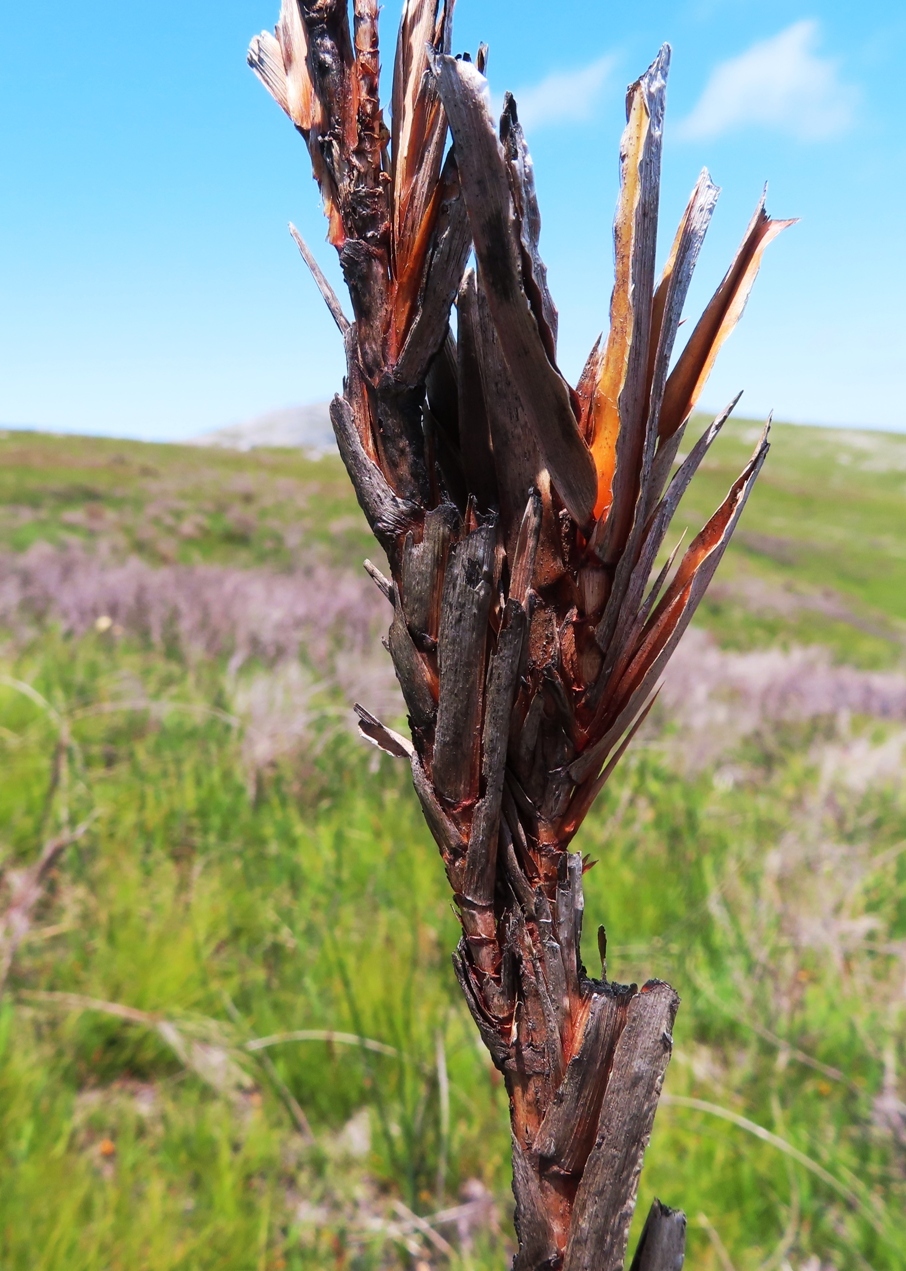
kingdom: Plantae
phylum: Tracheophyta
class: Liliopsida
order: Asparagales
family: Iridaceae
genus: Witsenia
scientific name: Witsenia maura
